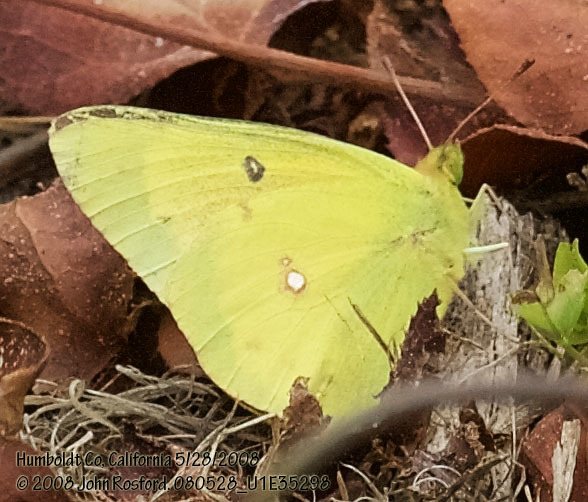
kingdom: Animalia
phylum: Arthropoda
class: Insecta
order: Lepidoptera
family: Pieridae
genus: Colias
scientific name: Colias eurytheme
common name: Alfalfa butterfly
